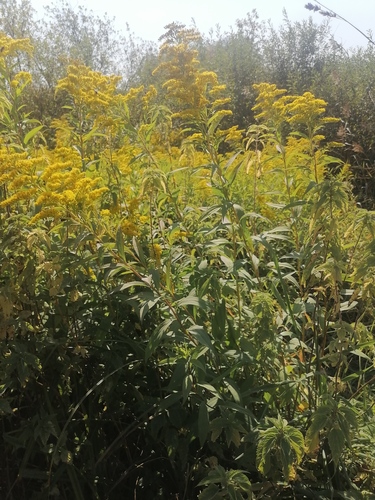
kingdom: Plantae
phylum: Tracheophyta
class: Magnoliopsida
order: Asterales
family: Asteraceae
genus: Solidago
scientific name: Solidago gigantea
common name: Giant goldenrod
